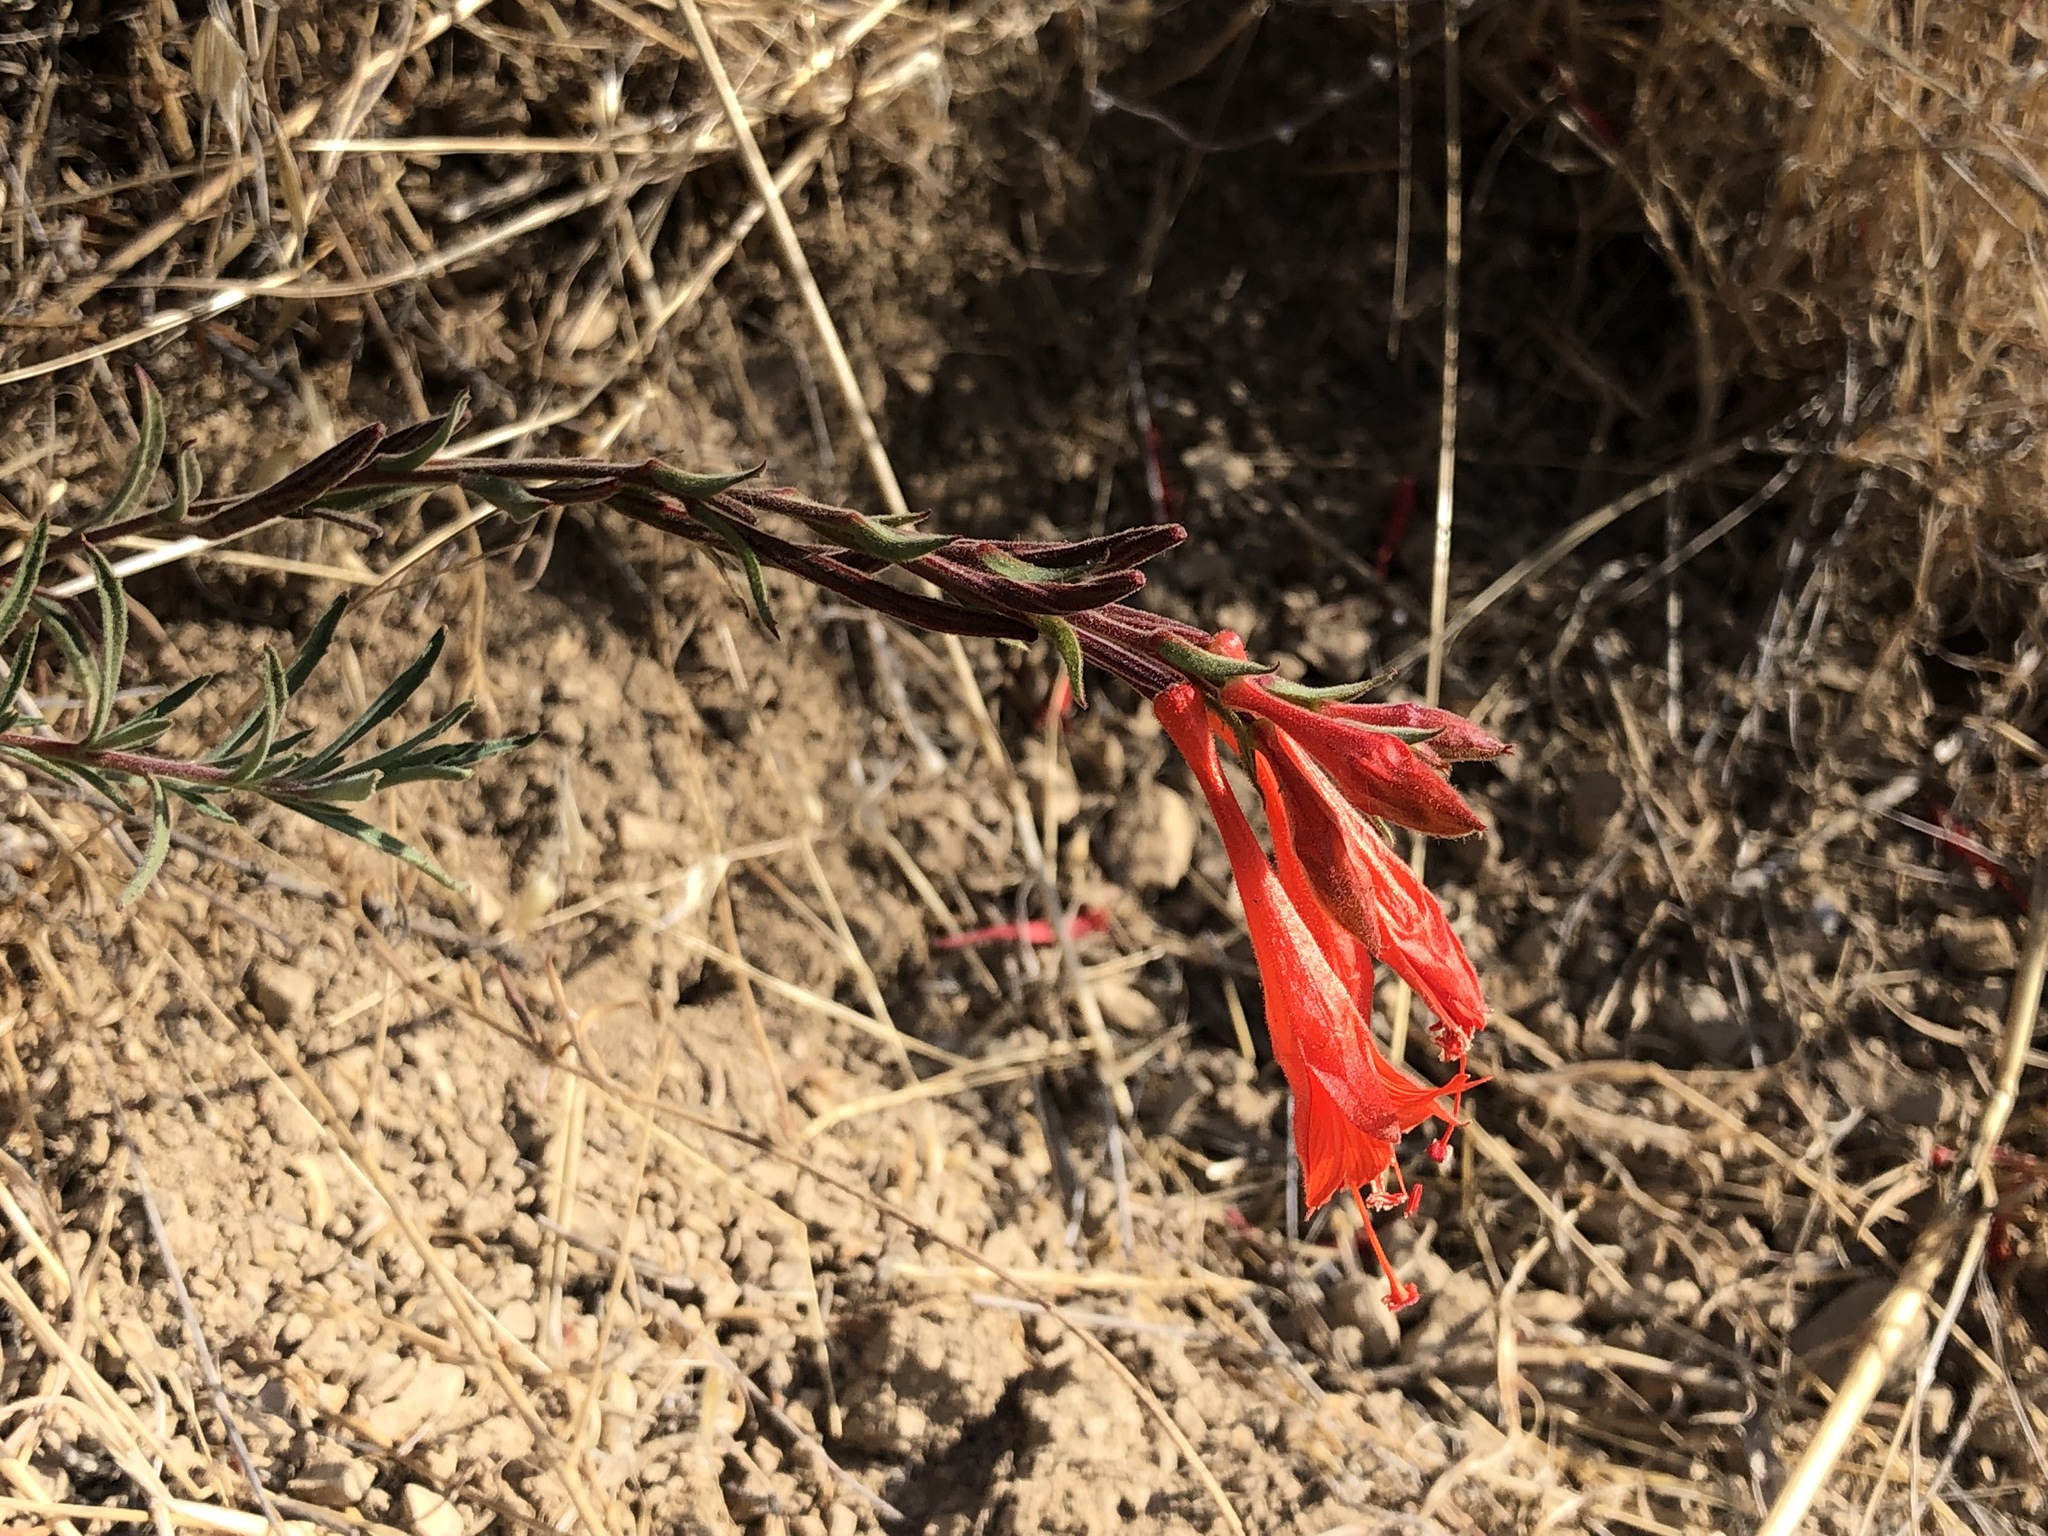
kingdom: Plantae
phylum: Tracheophyta
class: Magnoliopsida
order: Myrtales
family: Onagraceae
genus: Epilobium
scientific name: Epilobium canum
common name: California-fuchsia
